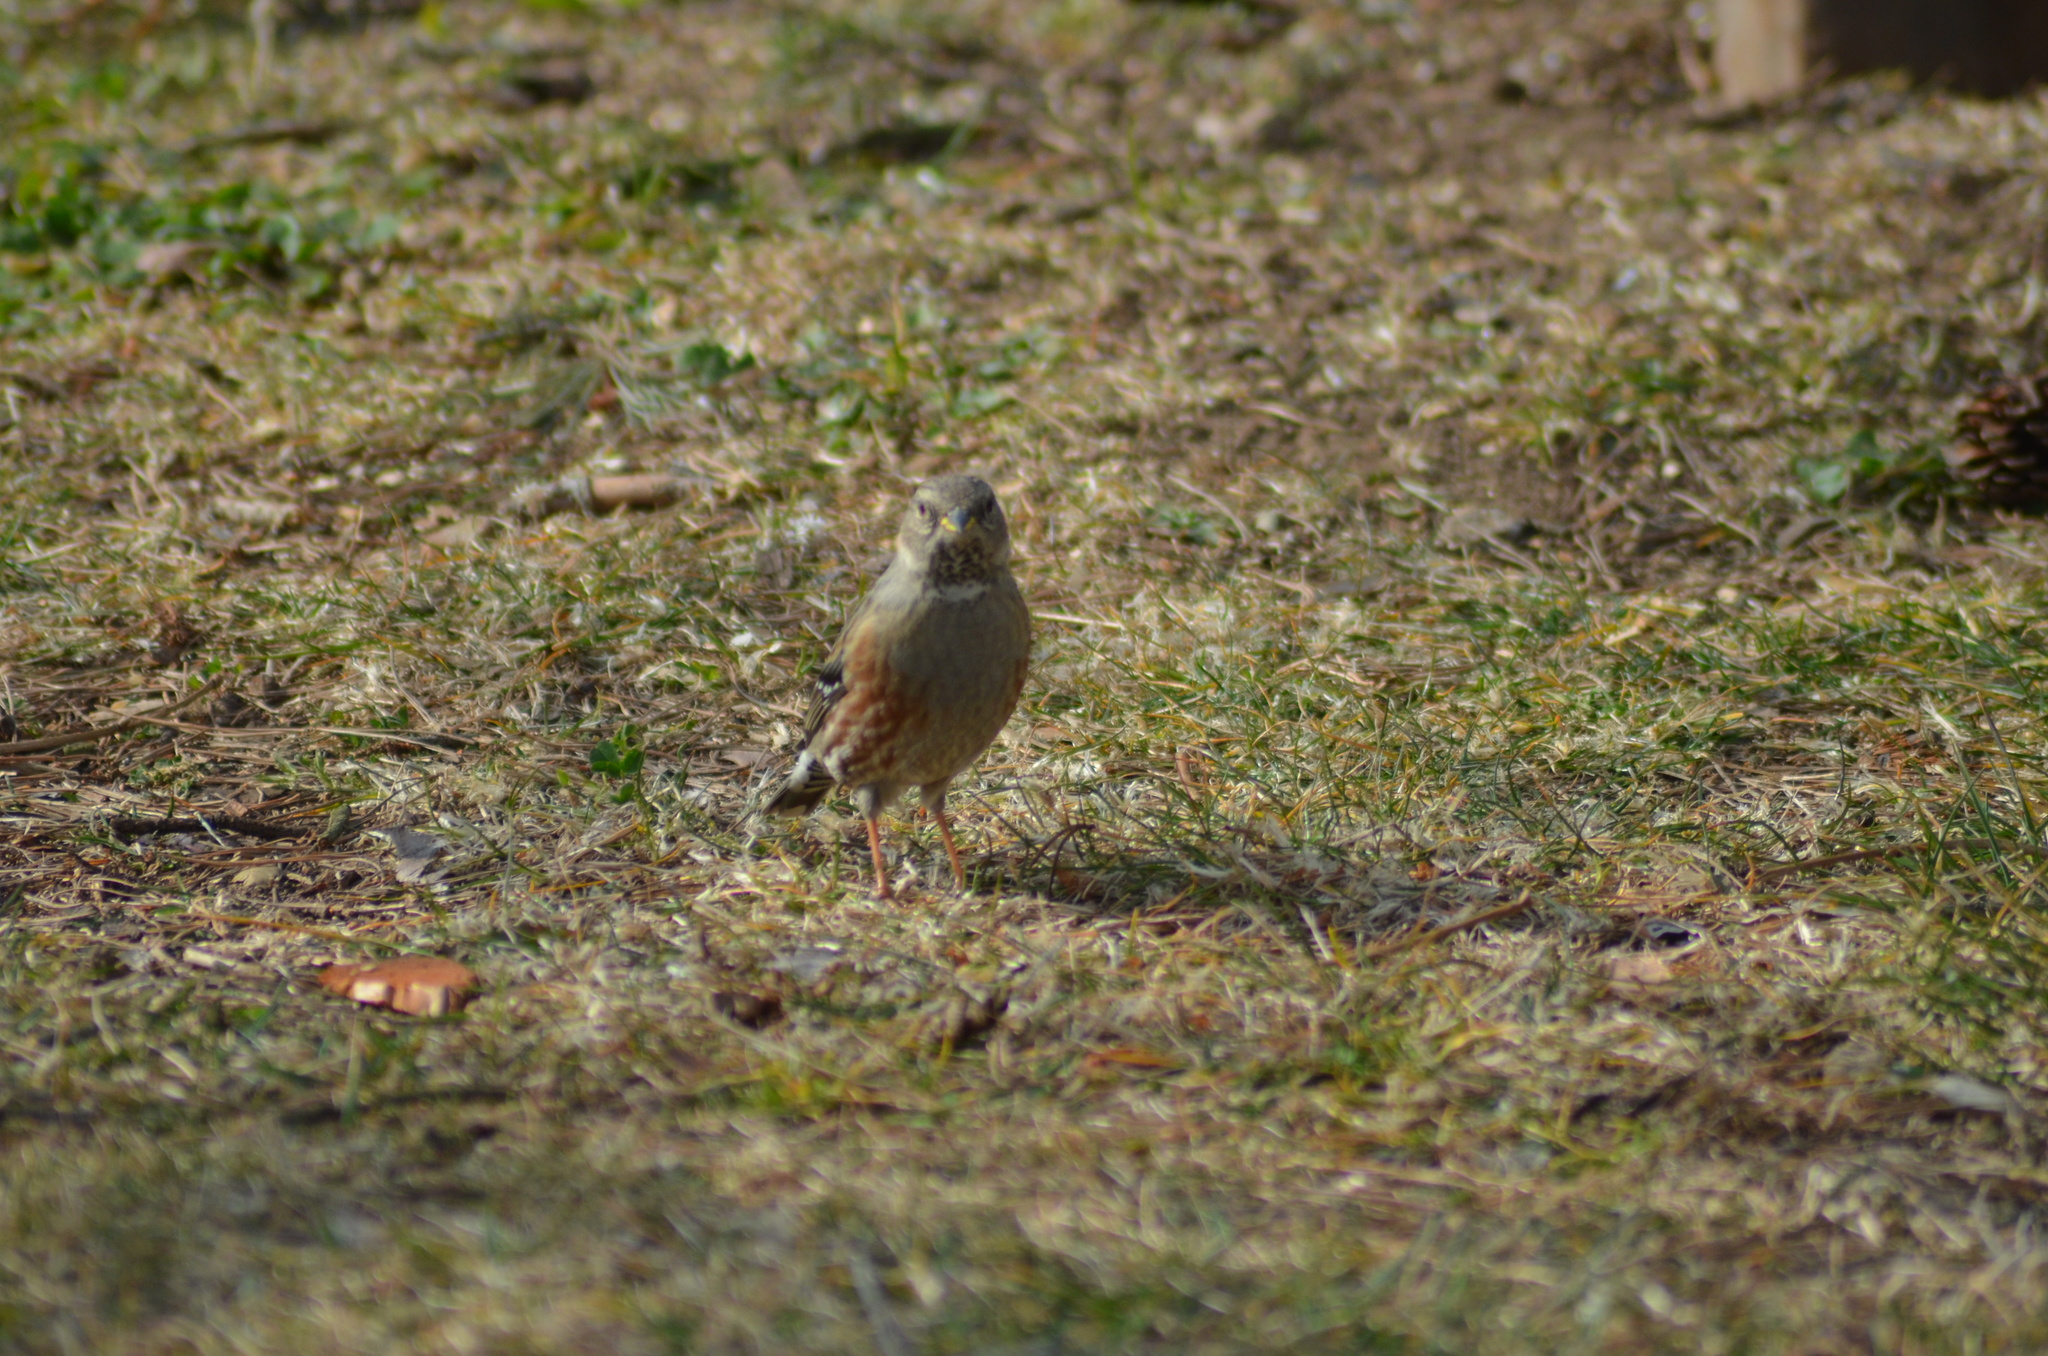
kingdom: Animalia
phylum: Chordata
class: Aves
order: Passeriformes
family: Prunellidae
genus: Prunella
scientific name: Prunella collaris
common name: Alpine accentor
